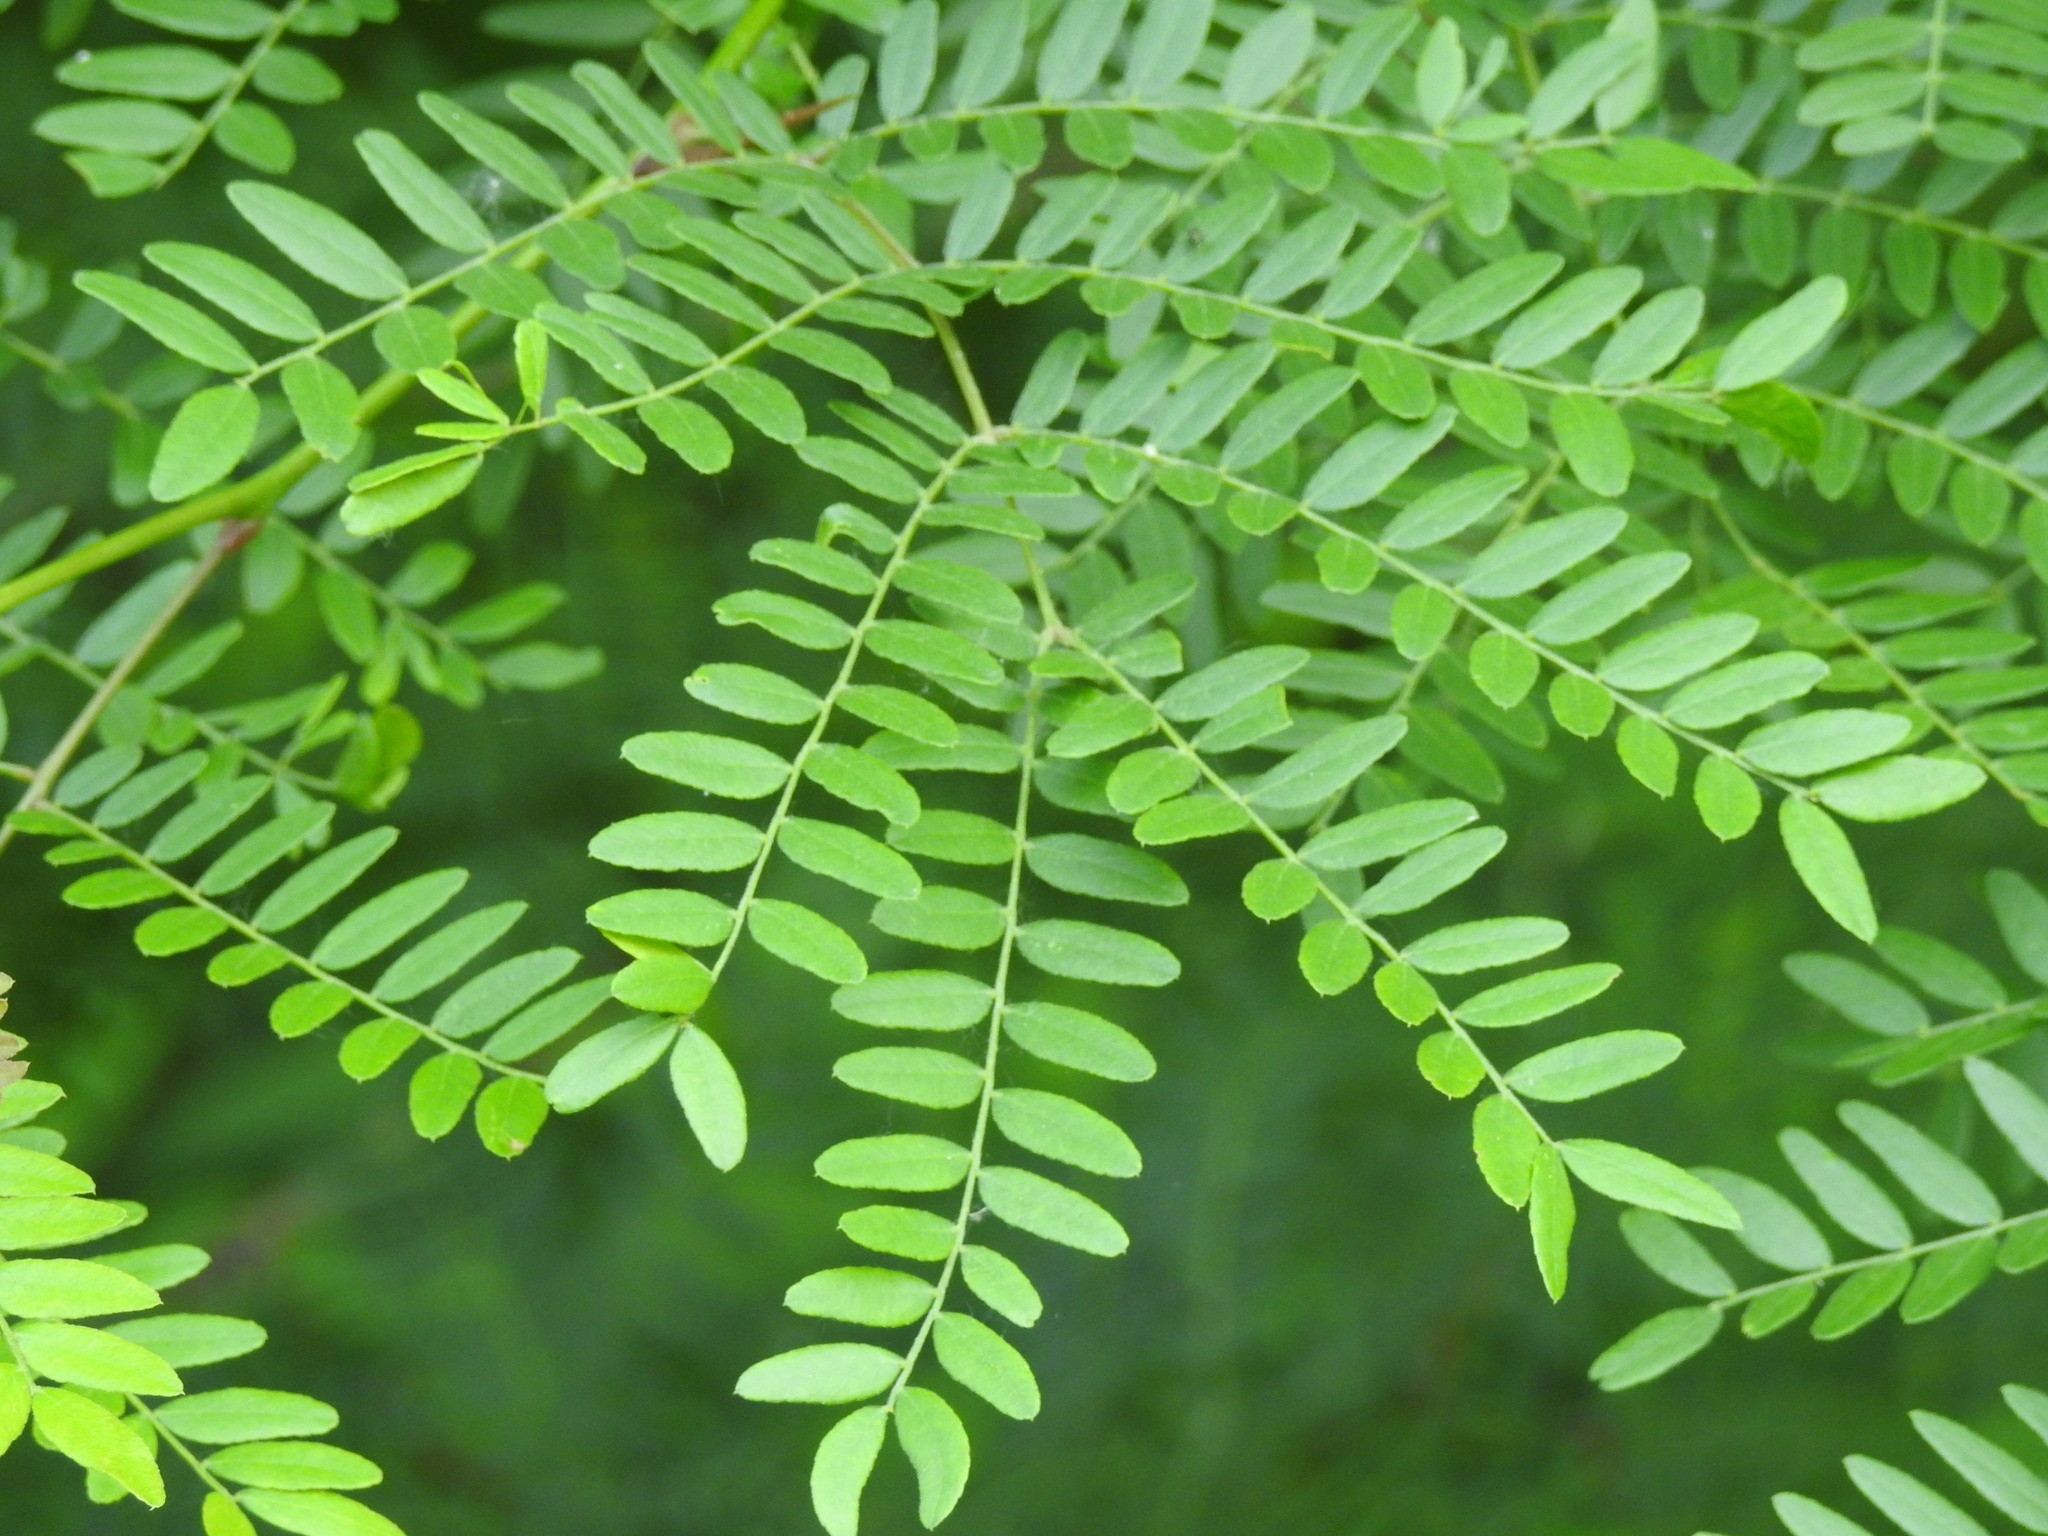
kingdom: Plantae
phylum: Tracheophyta
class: Magnoliopsida
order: Fabales
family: Fabaceae
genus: Gleditsia
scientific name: Gleditsia triacanthos
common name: Common honeylocust
